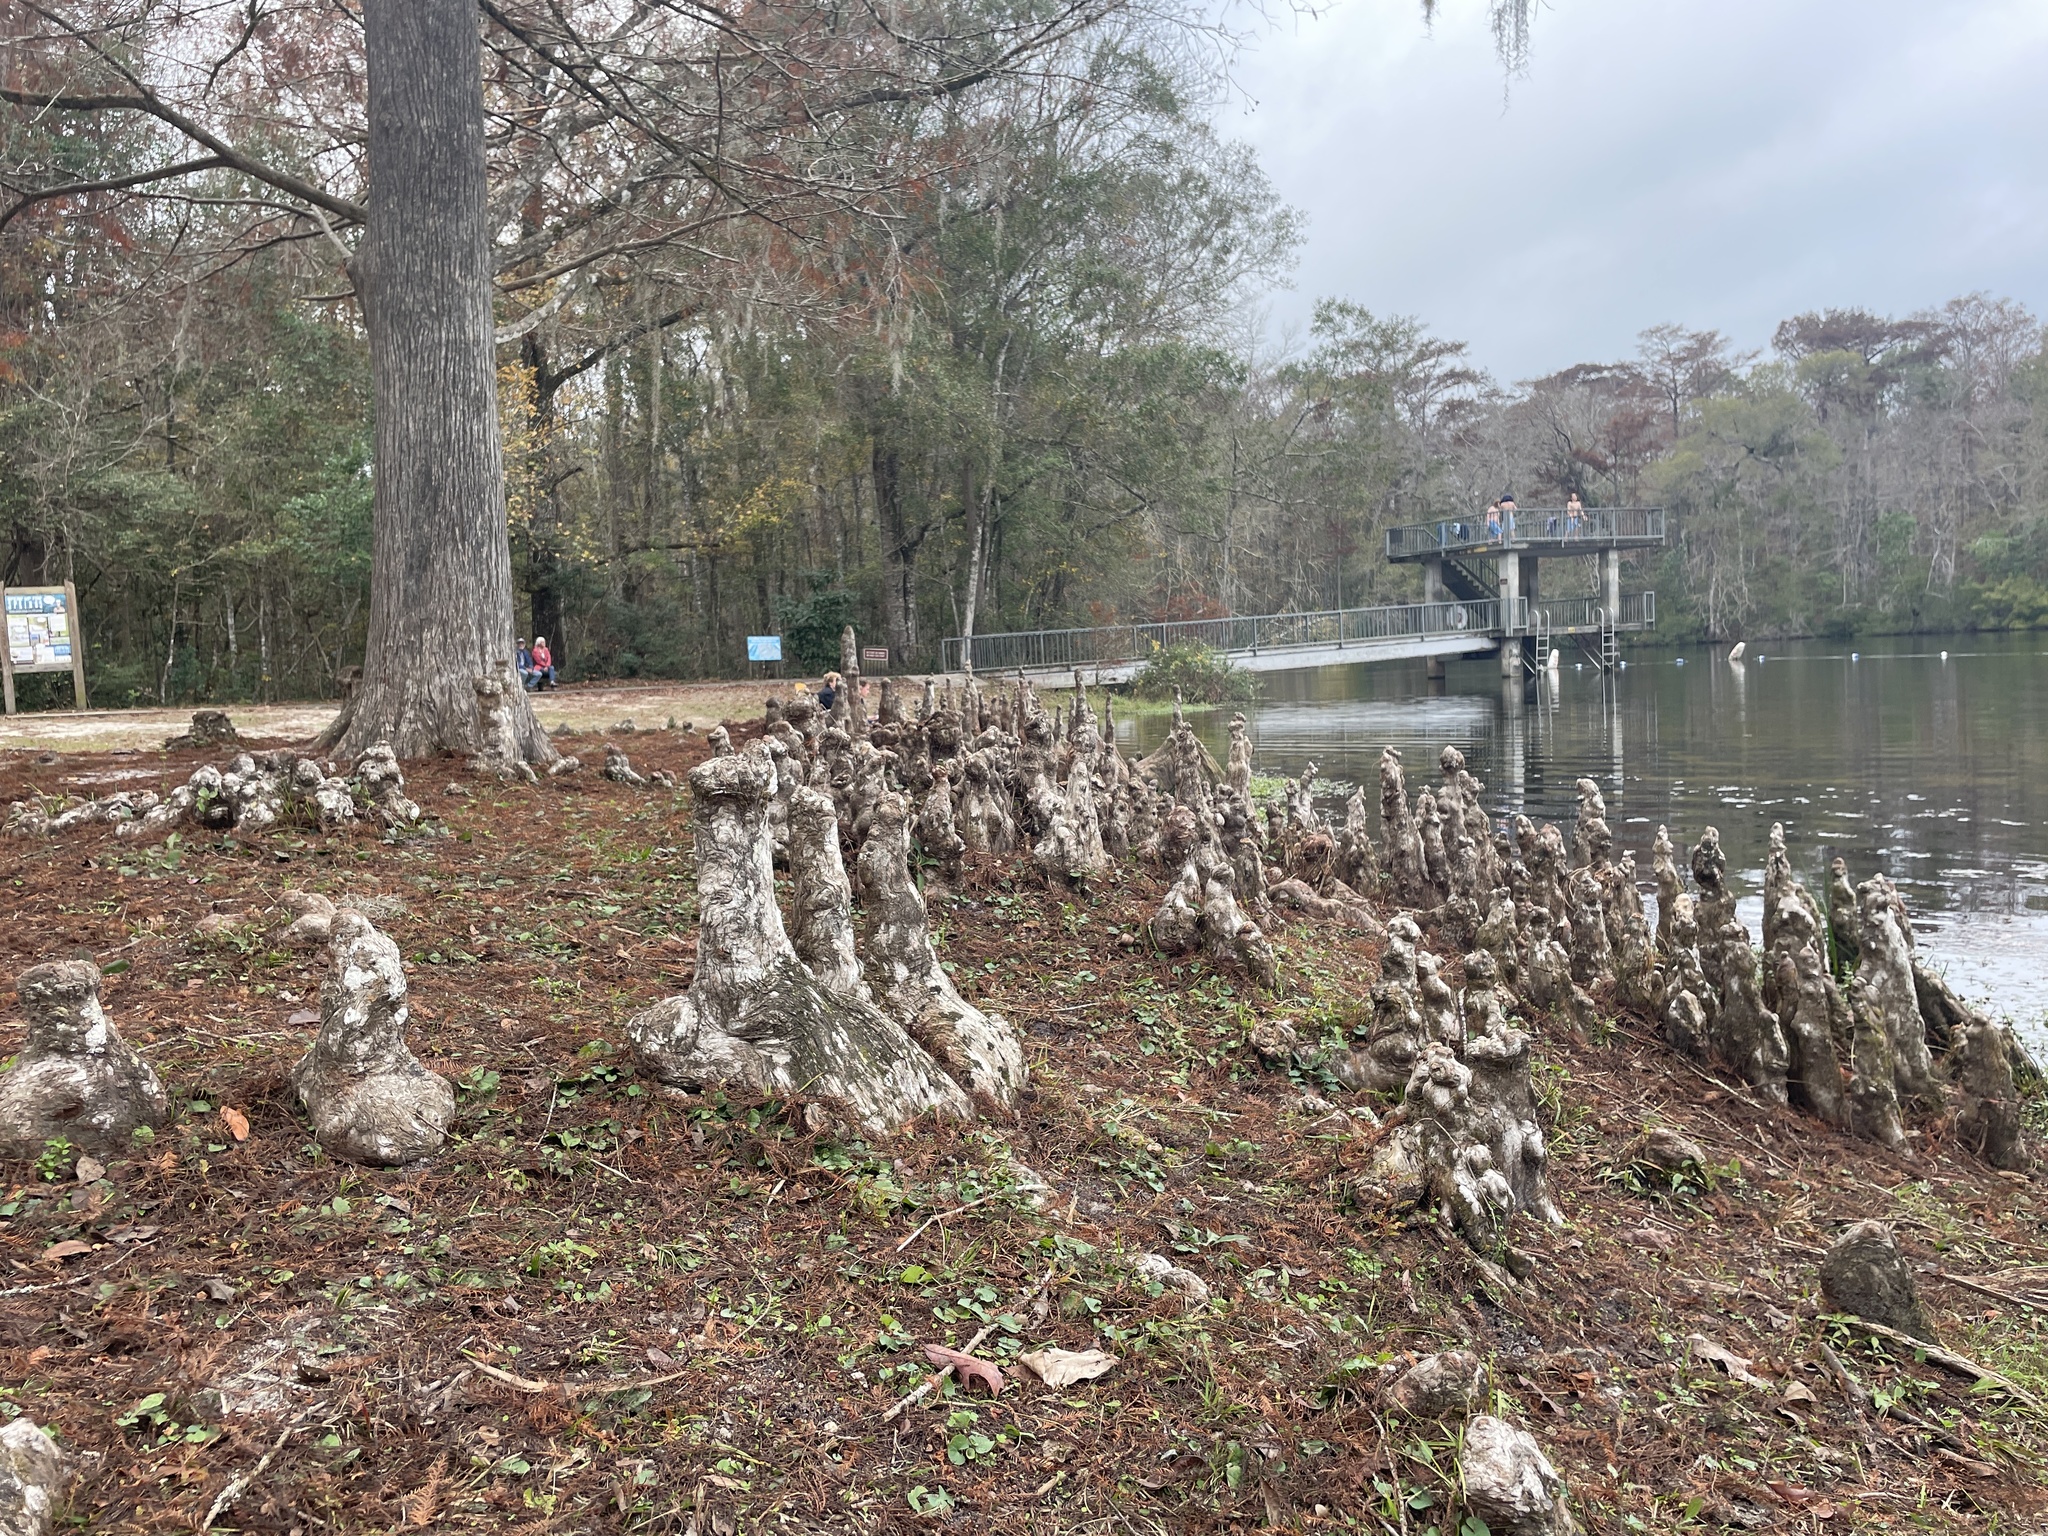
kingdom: Plantae
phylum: Tracheophyta
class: Pinopsida
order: Pinales
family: Cupressaceae
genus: Taxodium
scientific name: Taxodium distichum
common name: Bald cypress
